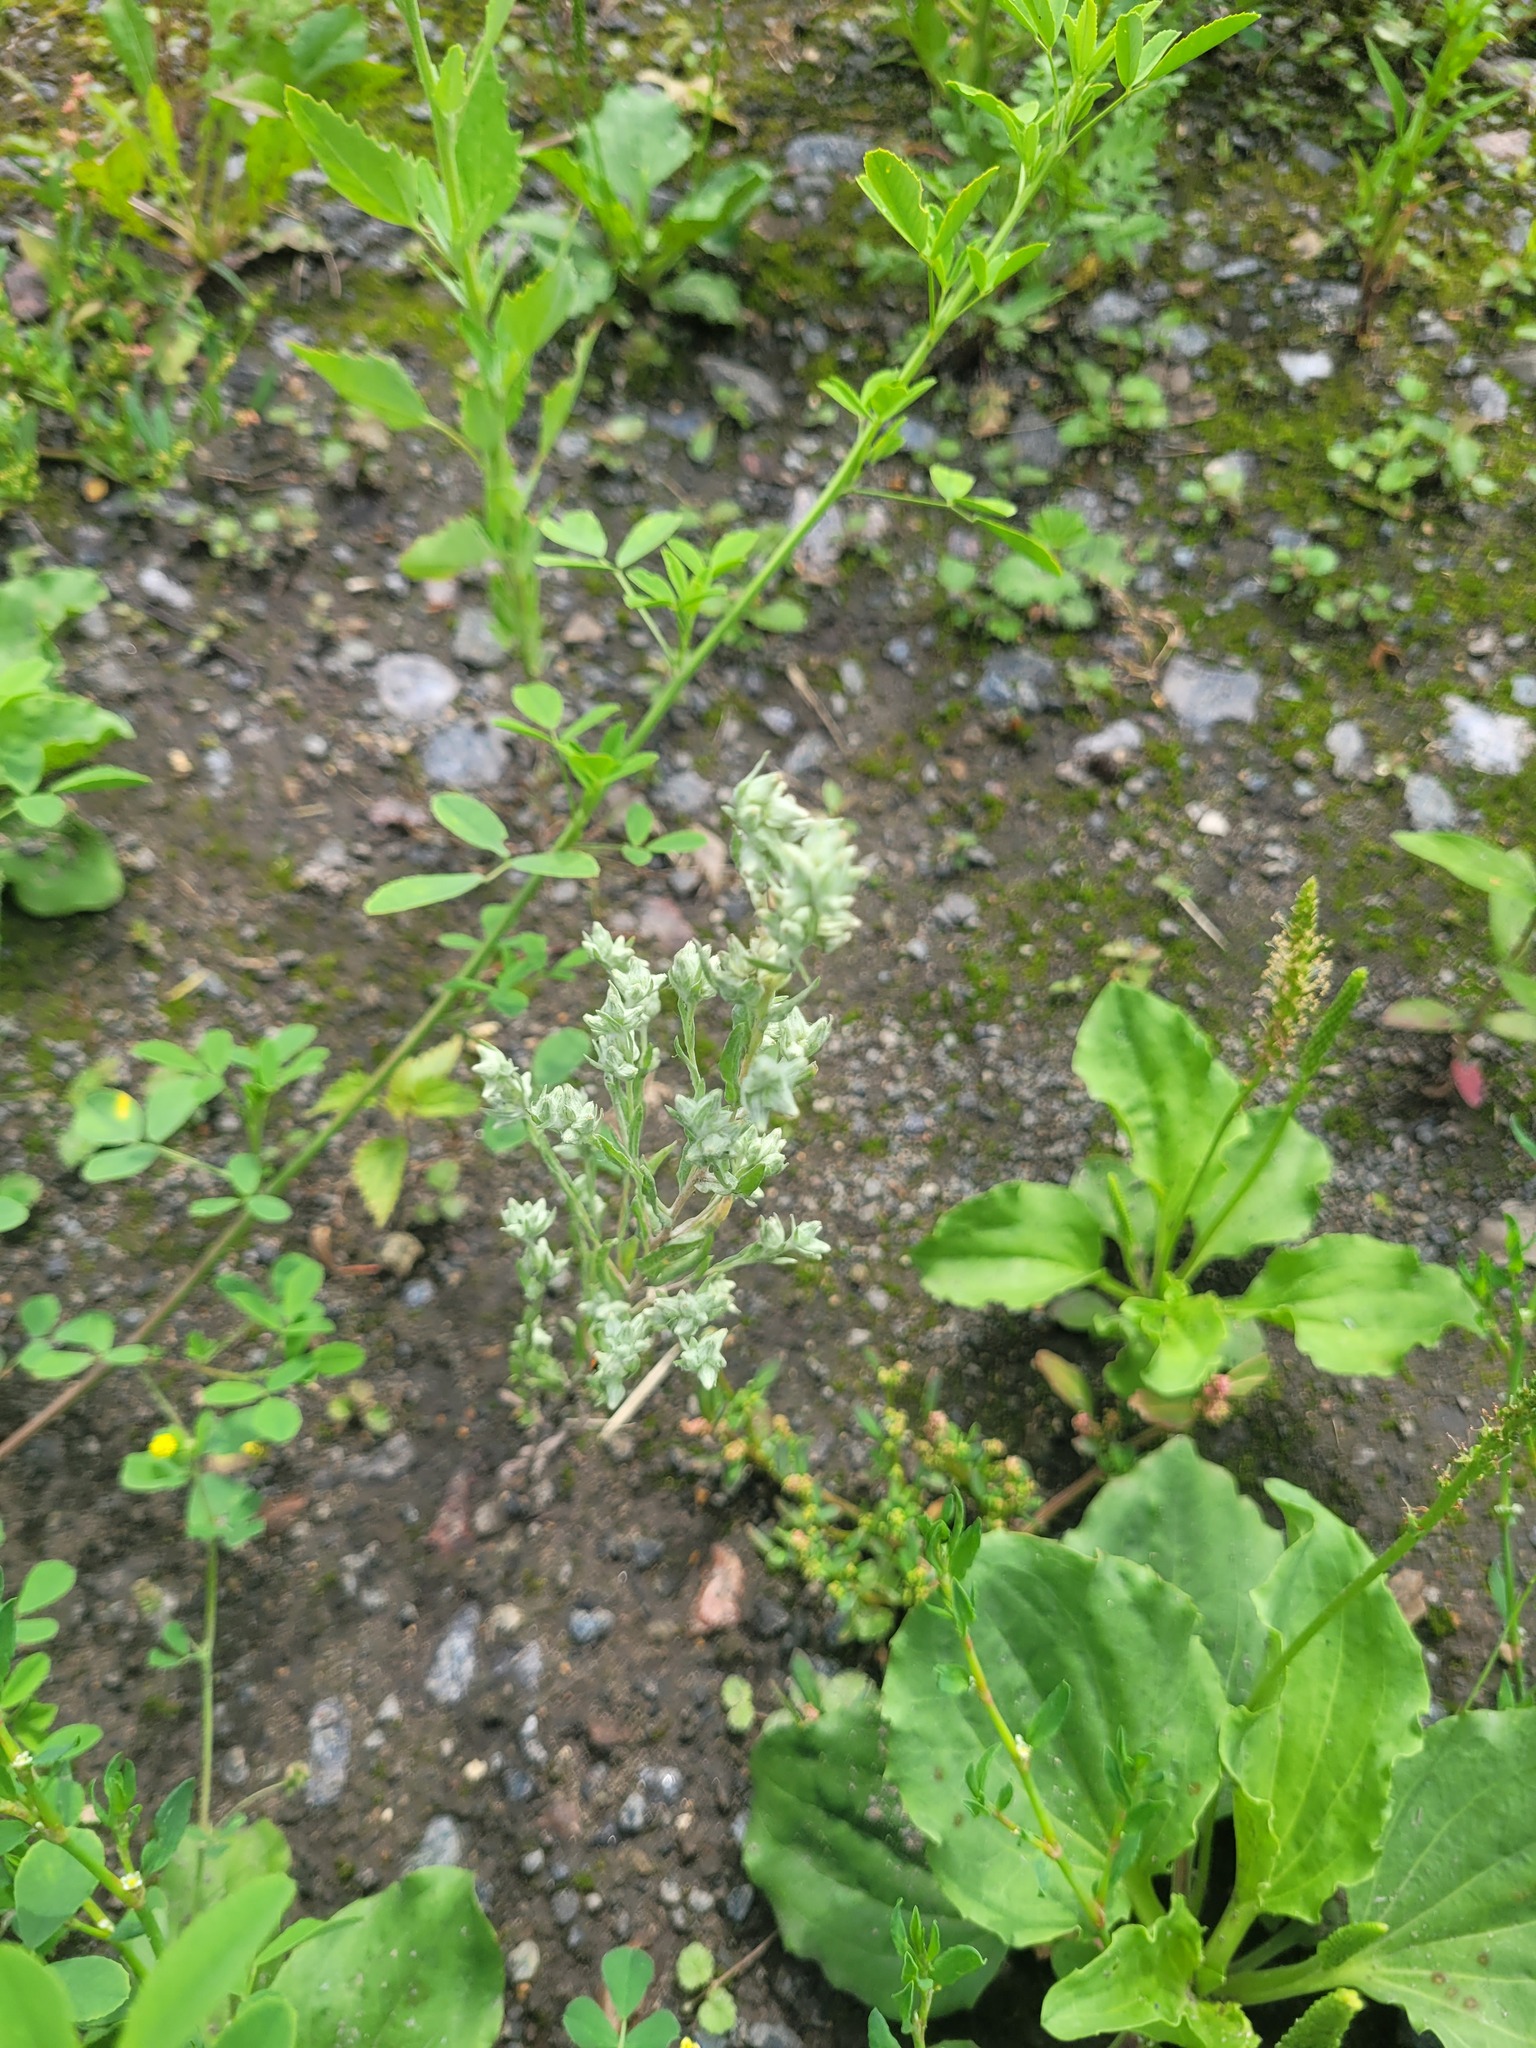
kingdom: Plantae
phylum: Tracheophyta
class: Magnoliopsida
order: Asterales
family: Asteraceae
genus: Filago
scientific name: Filago arvensis
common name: Field cudweed
